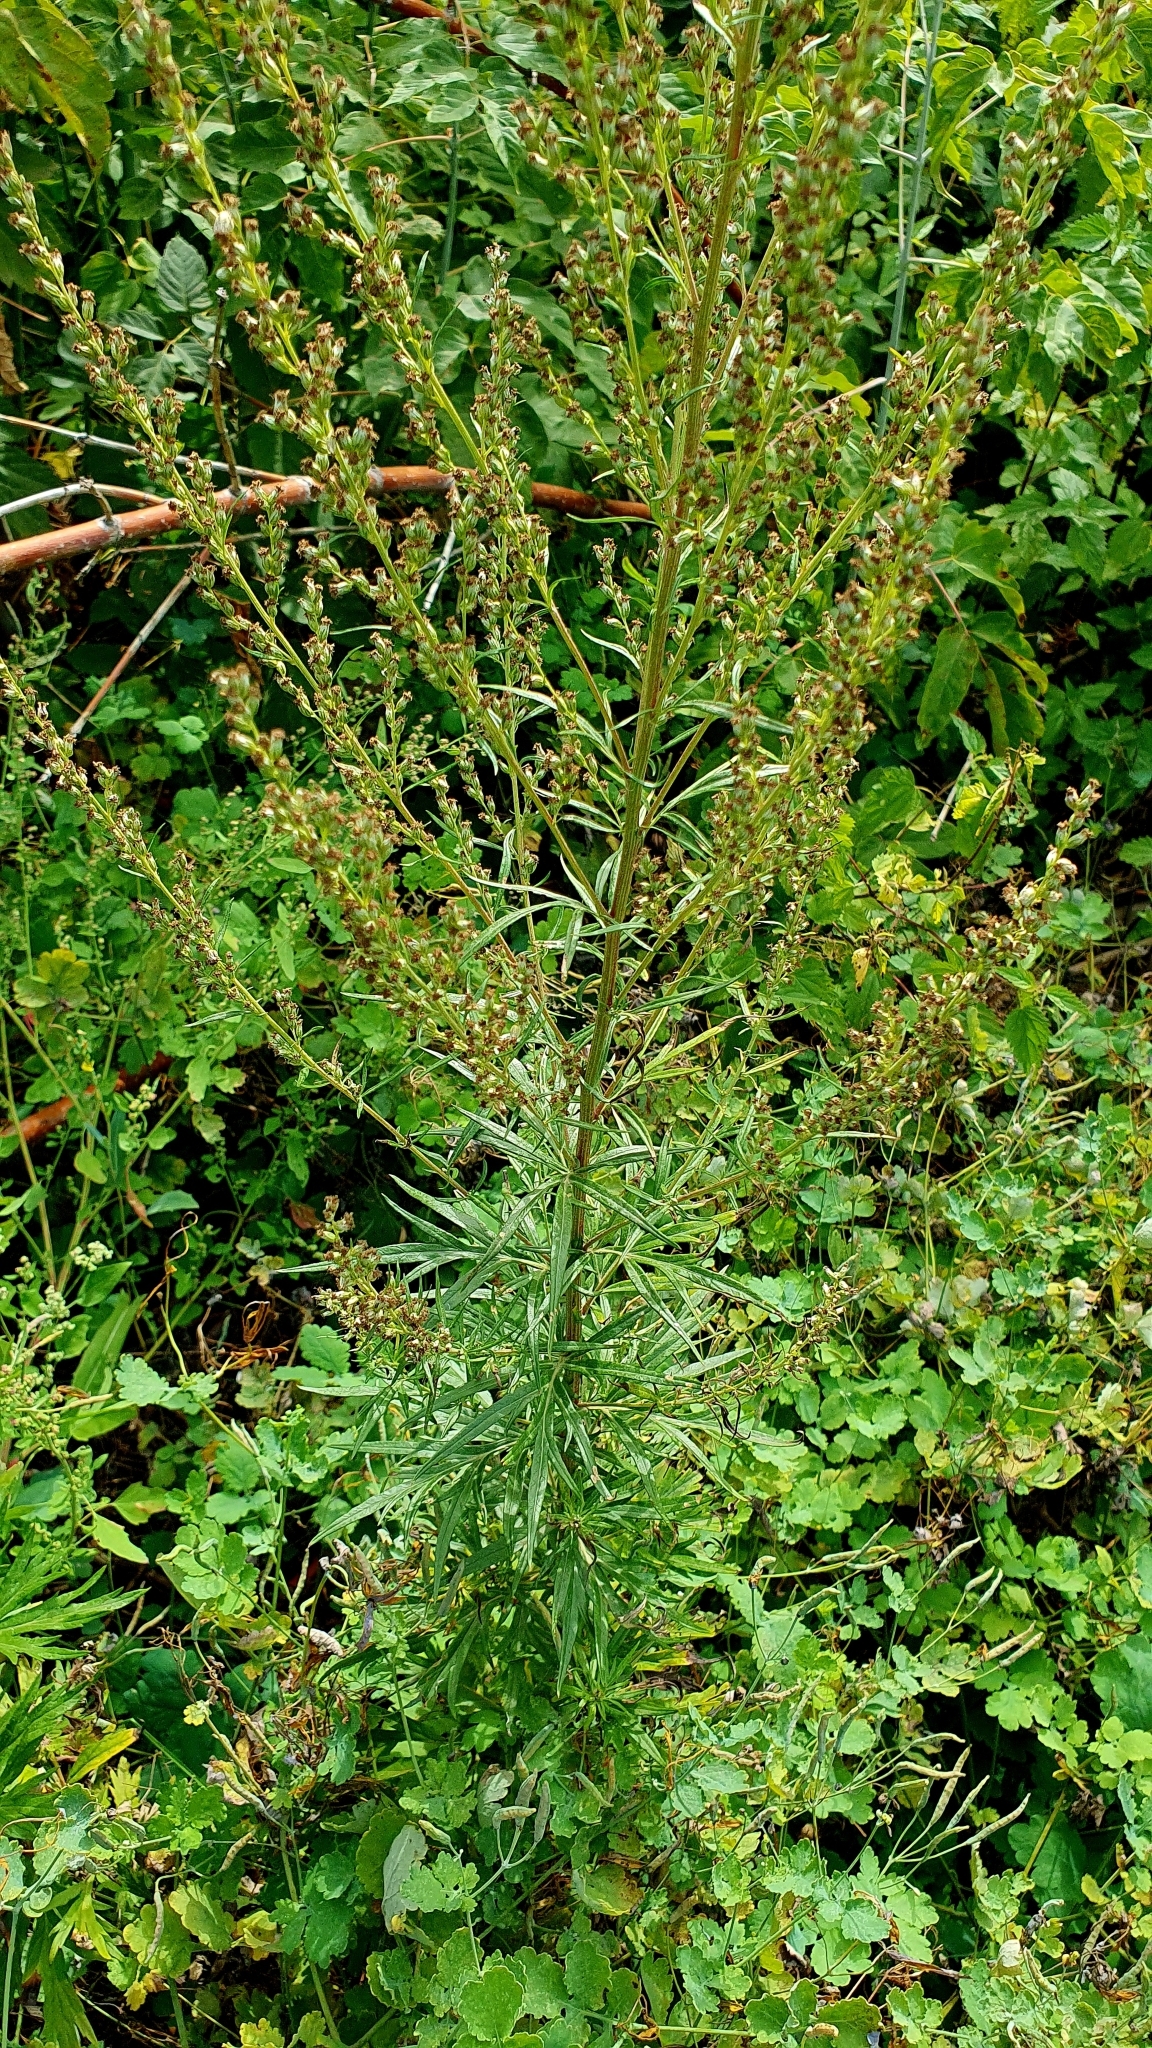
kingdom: Plantae
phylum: Tracheophyta
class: Magnoliopsida
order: Asterales
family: Asteraceae
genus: Artemisia
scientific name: Artemisia vulgaris
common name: Mugwort
